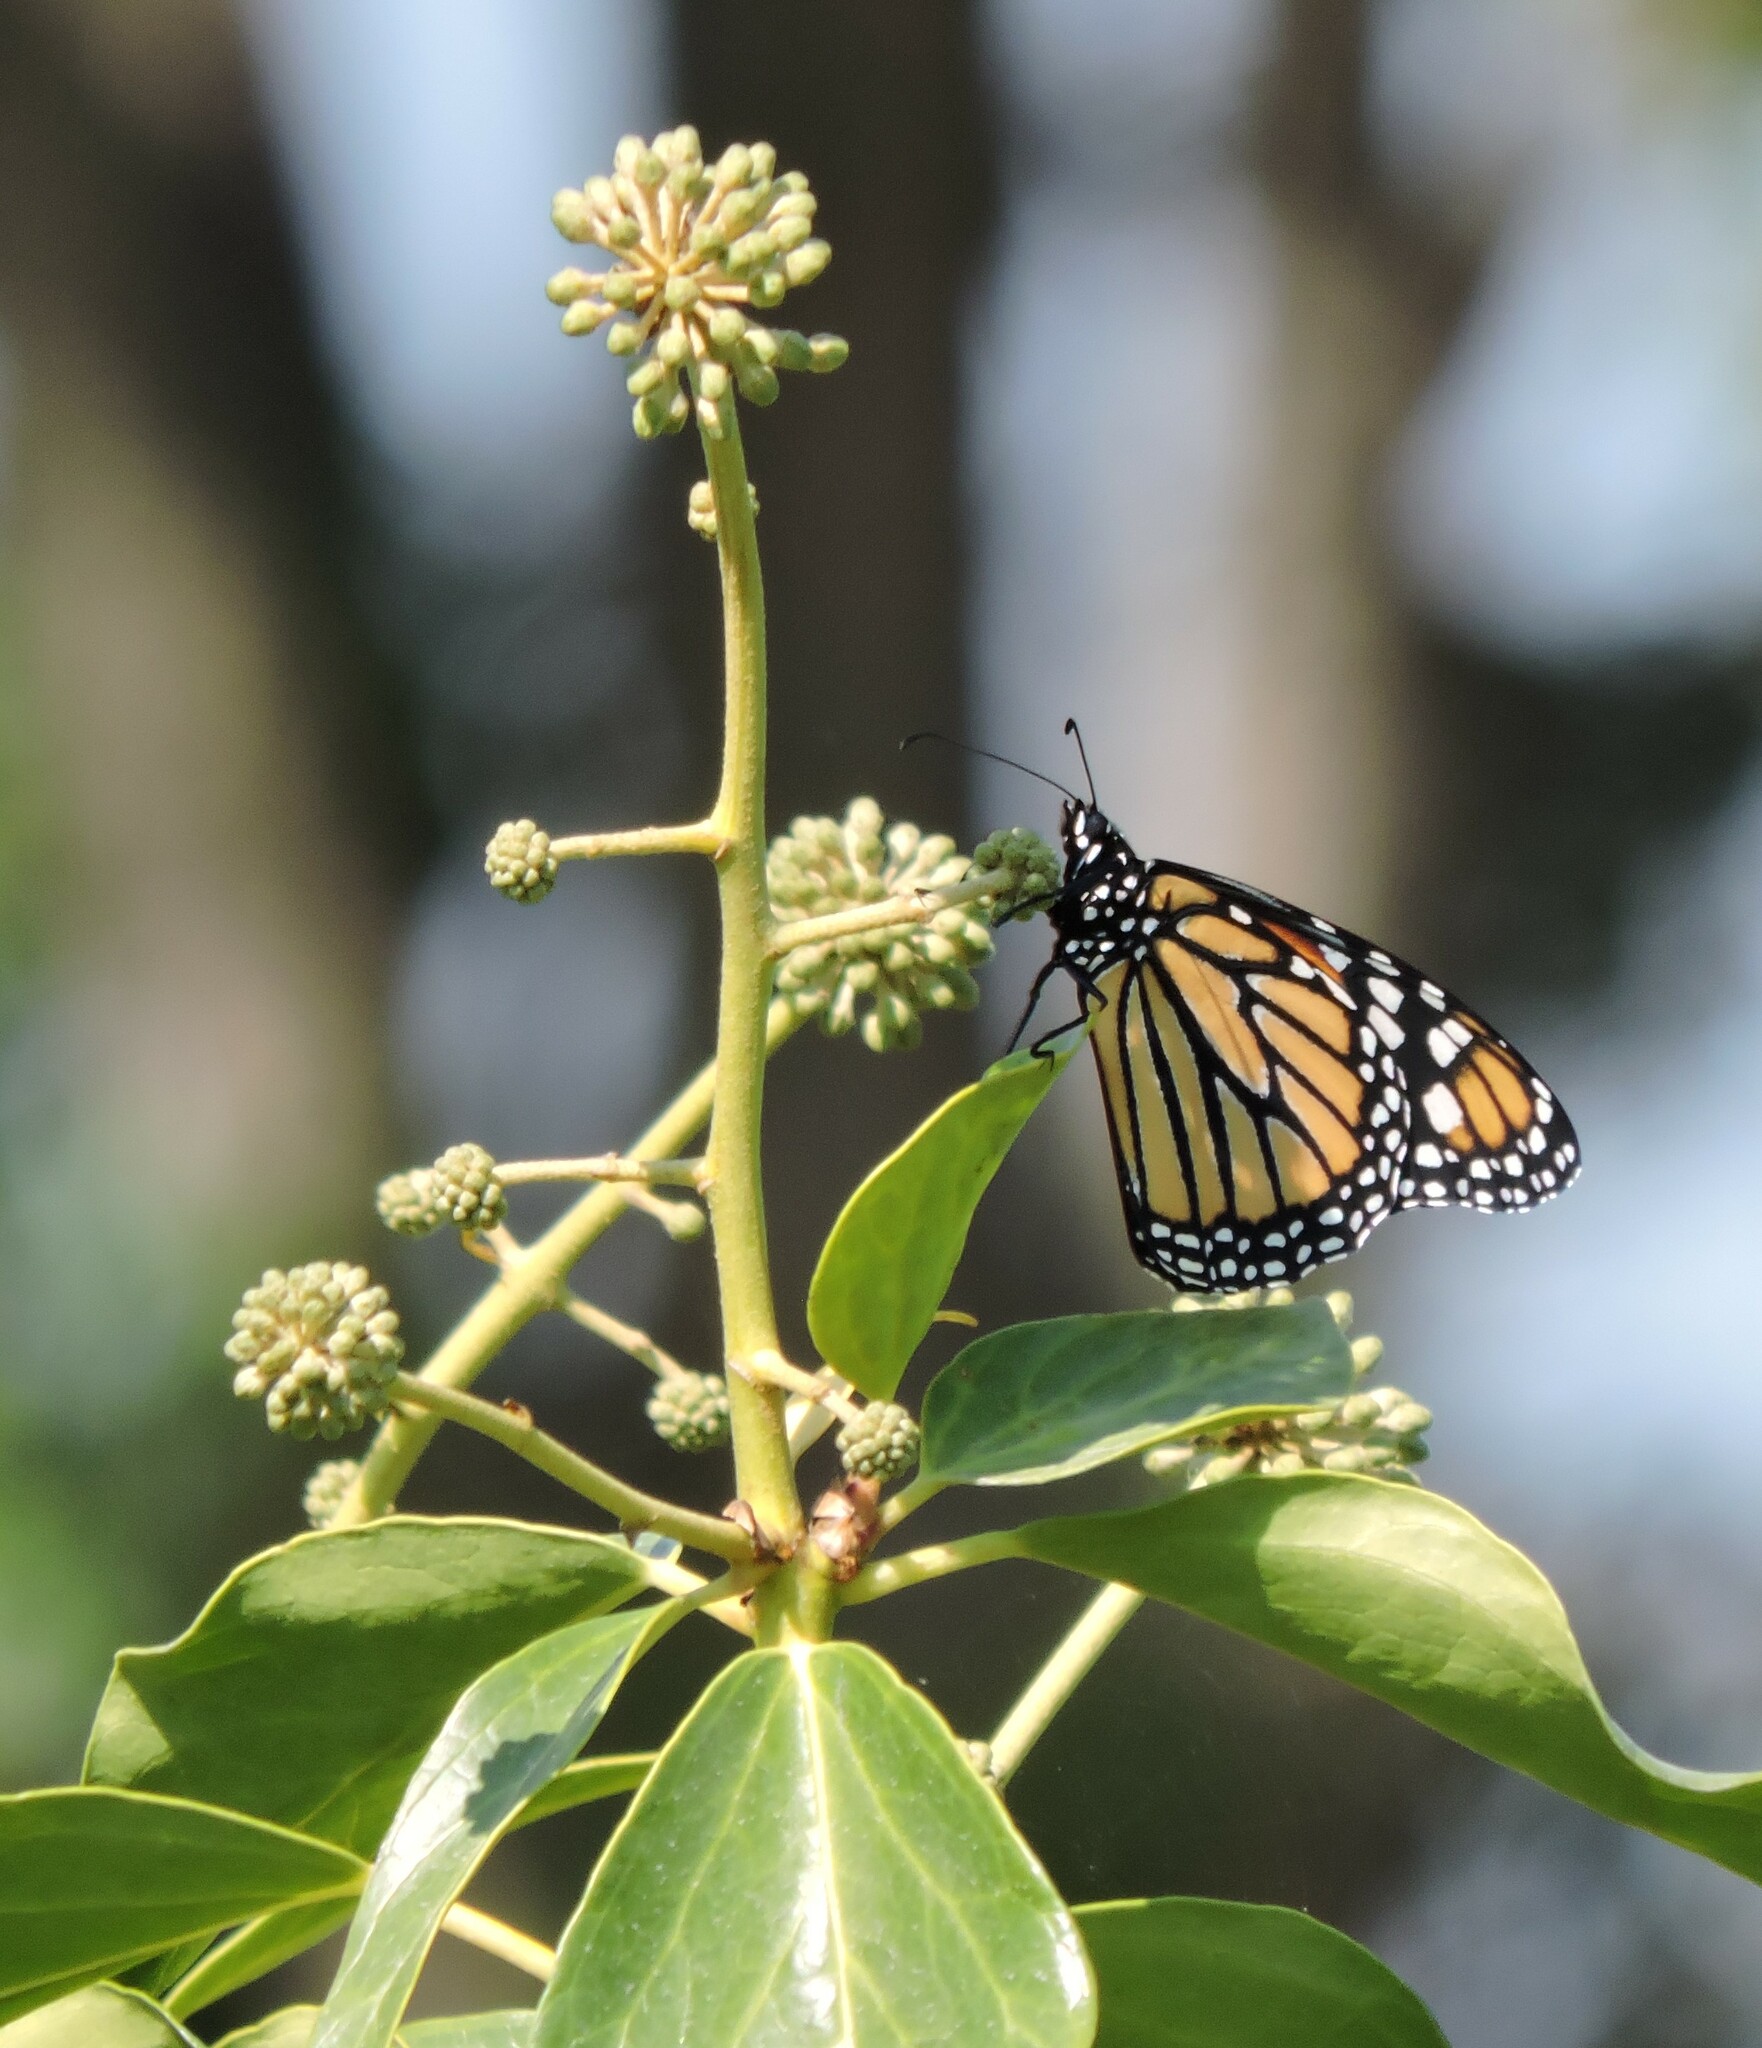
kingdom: Animalia
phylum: Arthropoda
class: Insecta
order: Lepidoptera
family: Nymphalidae
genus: Danaus
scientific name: Danaus plexippus
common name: Monarch
